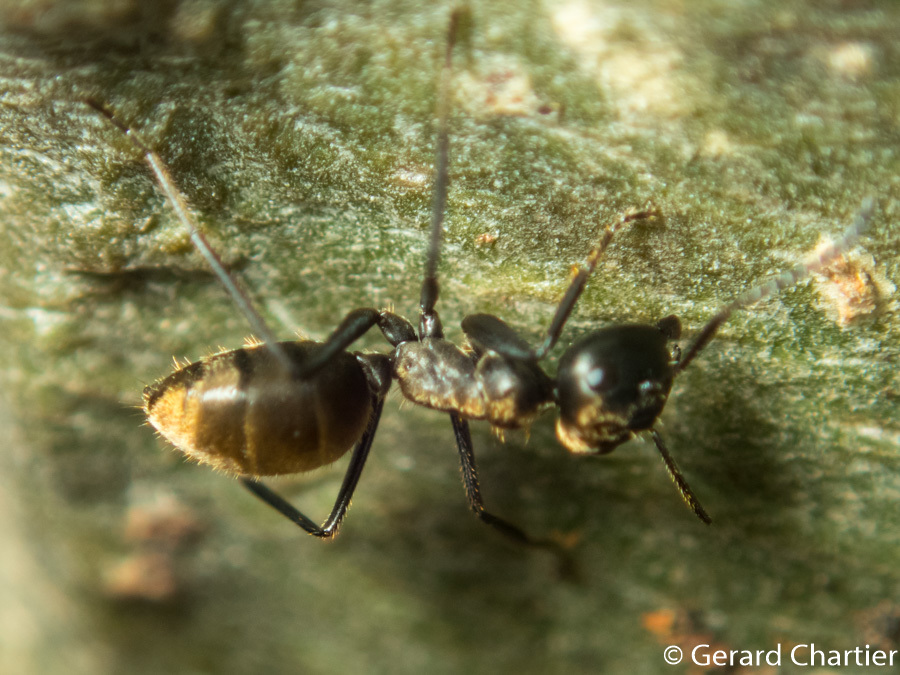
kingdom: Animalia
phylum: Arthropoda
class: Insecta
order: Hymenoptera
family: Formicidae
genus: Colobopsis
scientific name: Colobopsis
